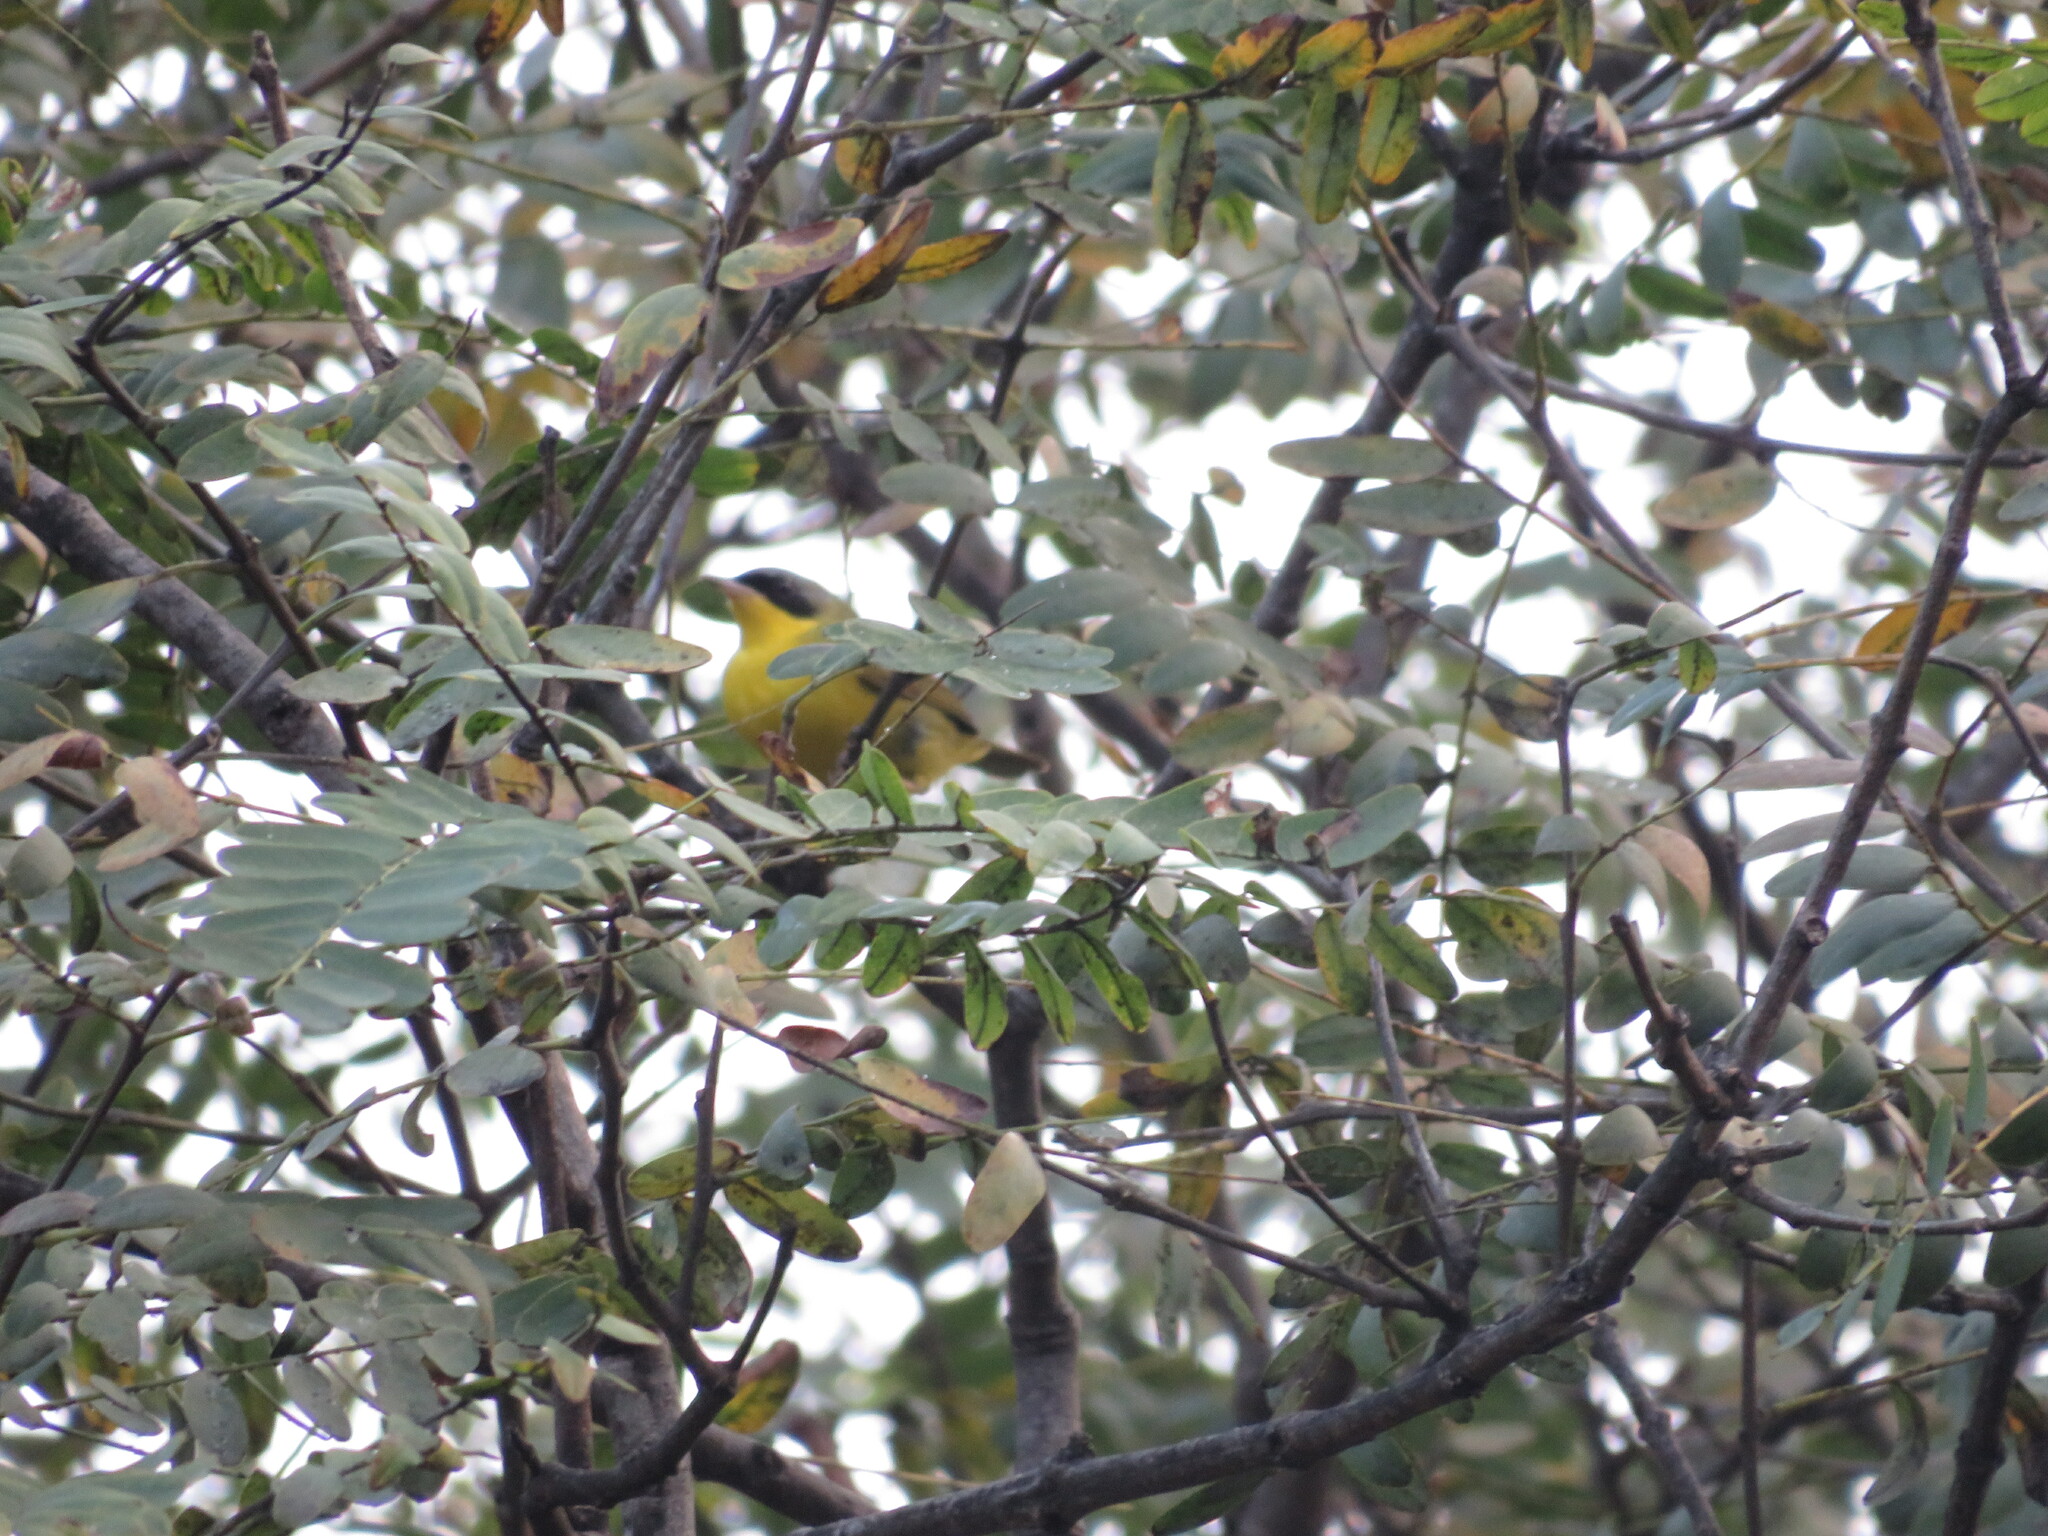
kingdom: Animalia
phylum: Chordata
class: Aves
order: Passeriformes
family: Parulidae
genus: Geothlypis
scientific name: Geothlypis velata
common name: Southern yellowthroat
